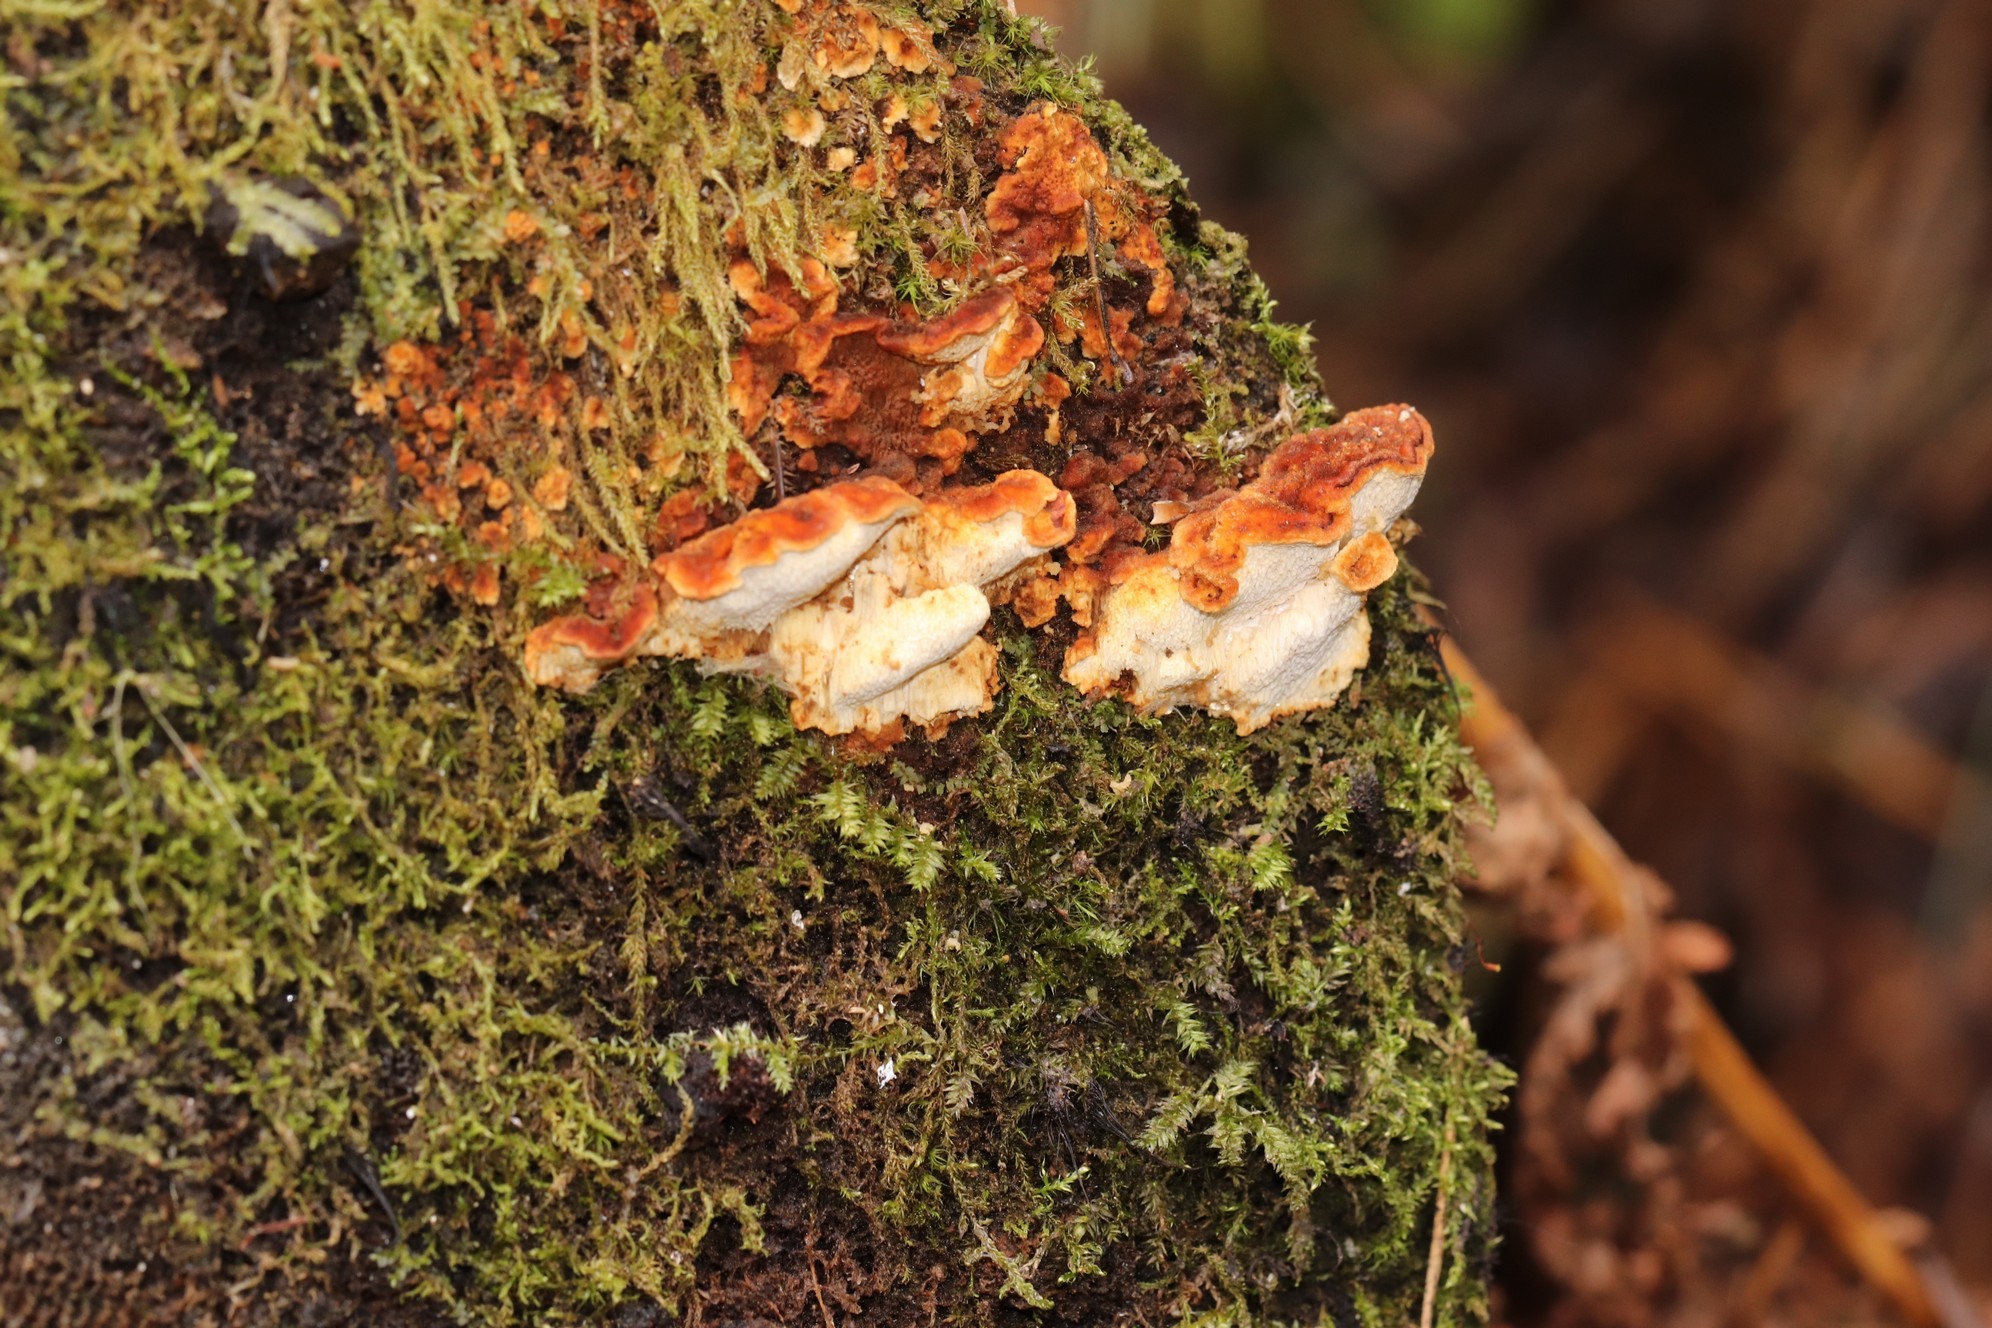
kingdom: Fungi
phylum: Basidiomycota
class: Agaricomycetes
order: Polyporales
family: Pycnoporellaceae
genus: Pycnoporellus
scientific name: Pycnoporellus fulgens
